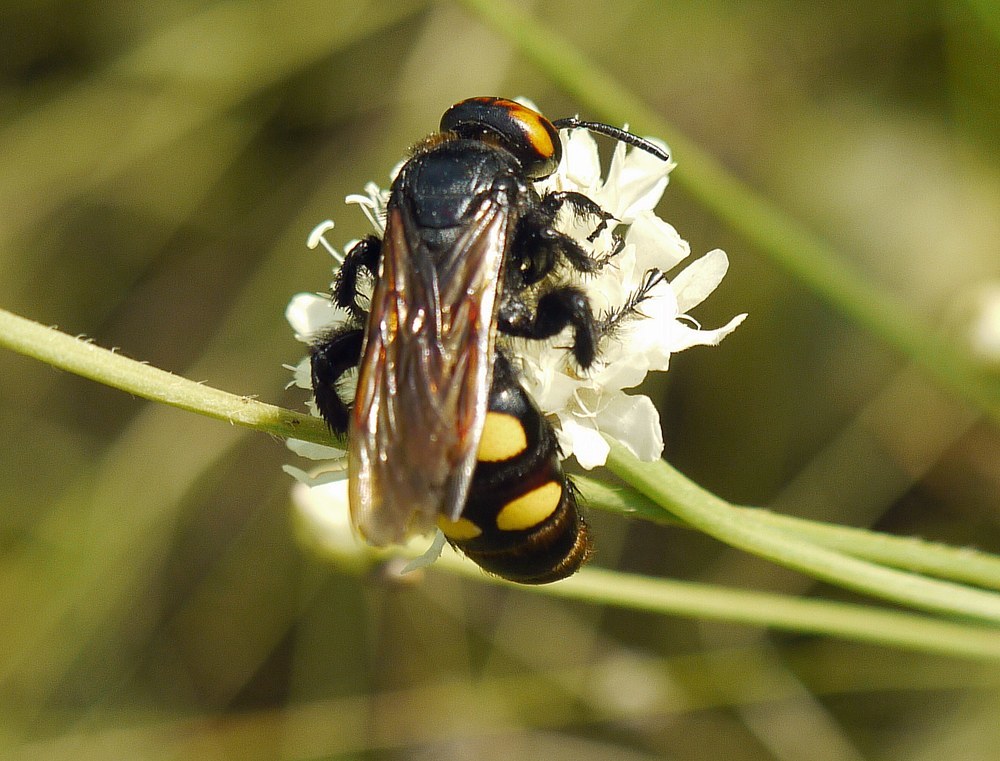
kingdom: Animalia
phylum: Arthropoda
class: Insecta
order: Hymenoptera
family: Scoliidae
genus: Megascolia
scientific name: Megascolia maculata
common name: Mammoth wasp
